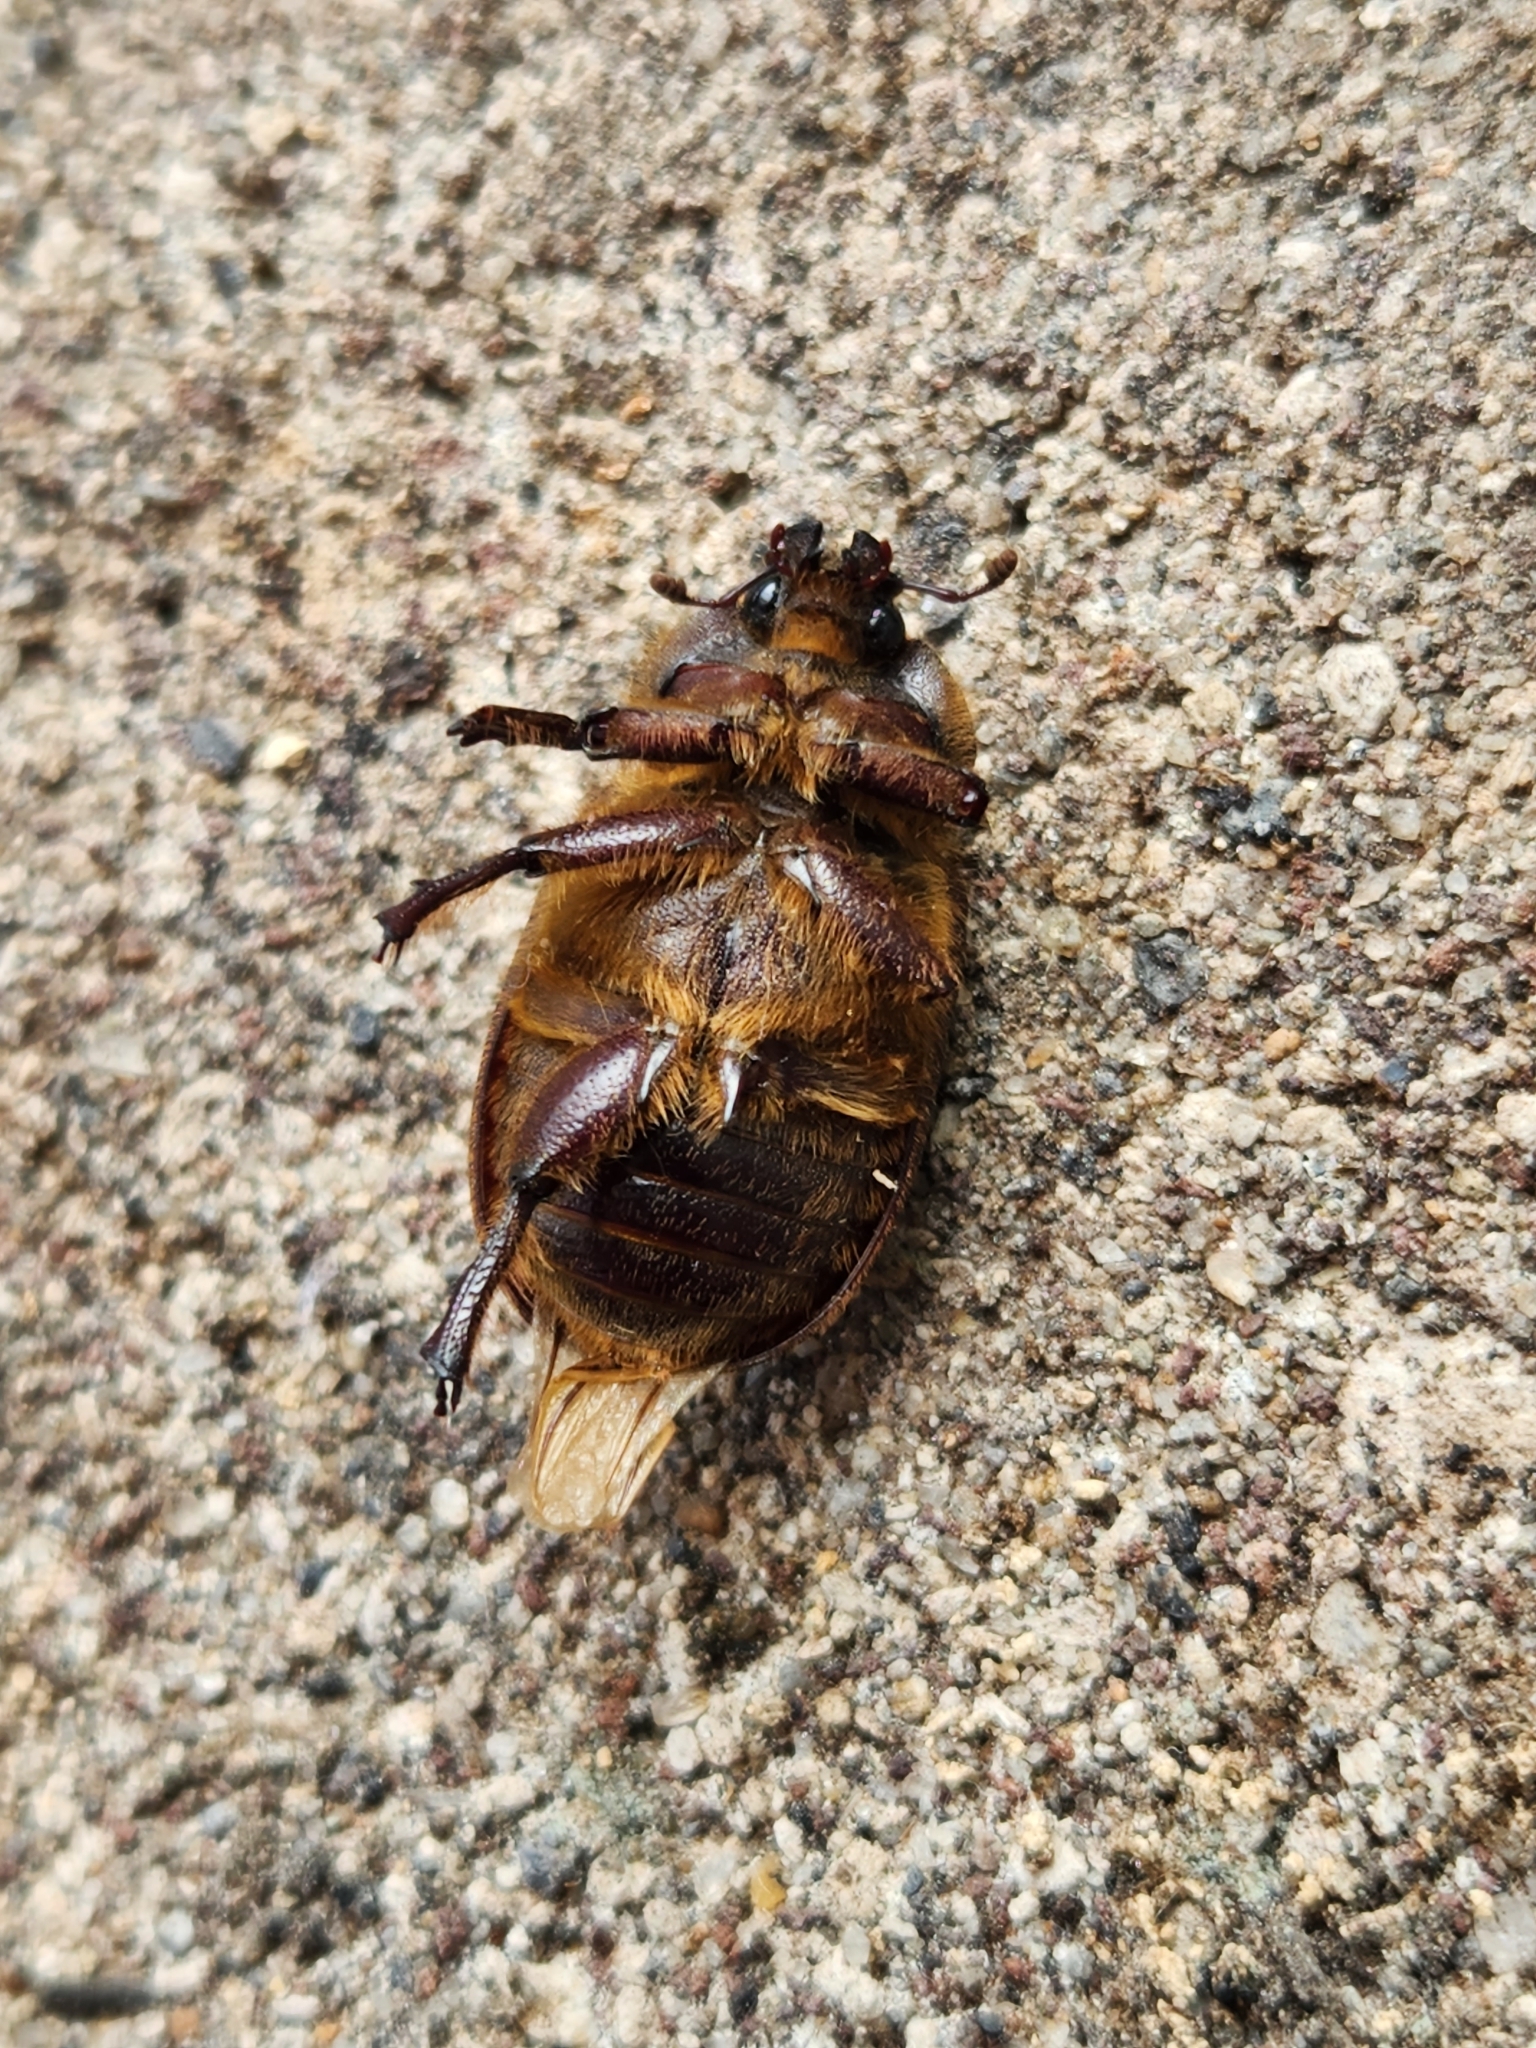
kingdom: Animalia
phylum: Arthropoda
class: Insecta
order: Coleoptera
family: Lucanidae
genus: Dendroblax
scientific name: Dendroblax earlii
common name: Earl's stag beetle
